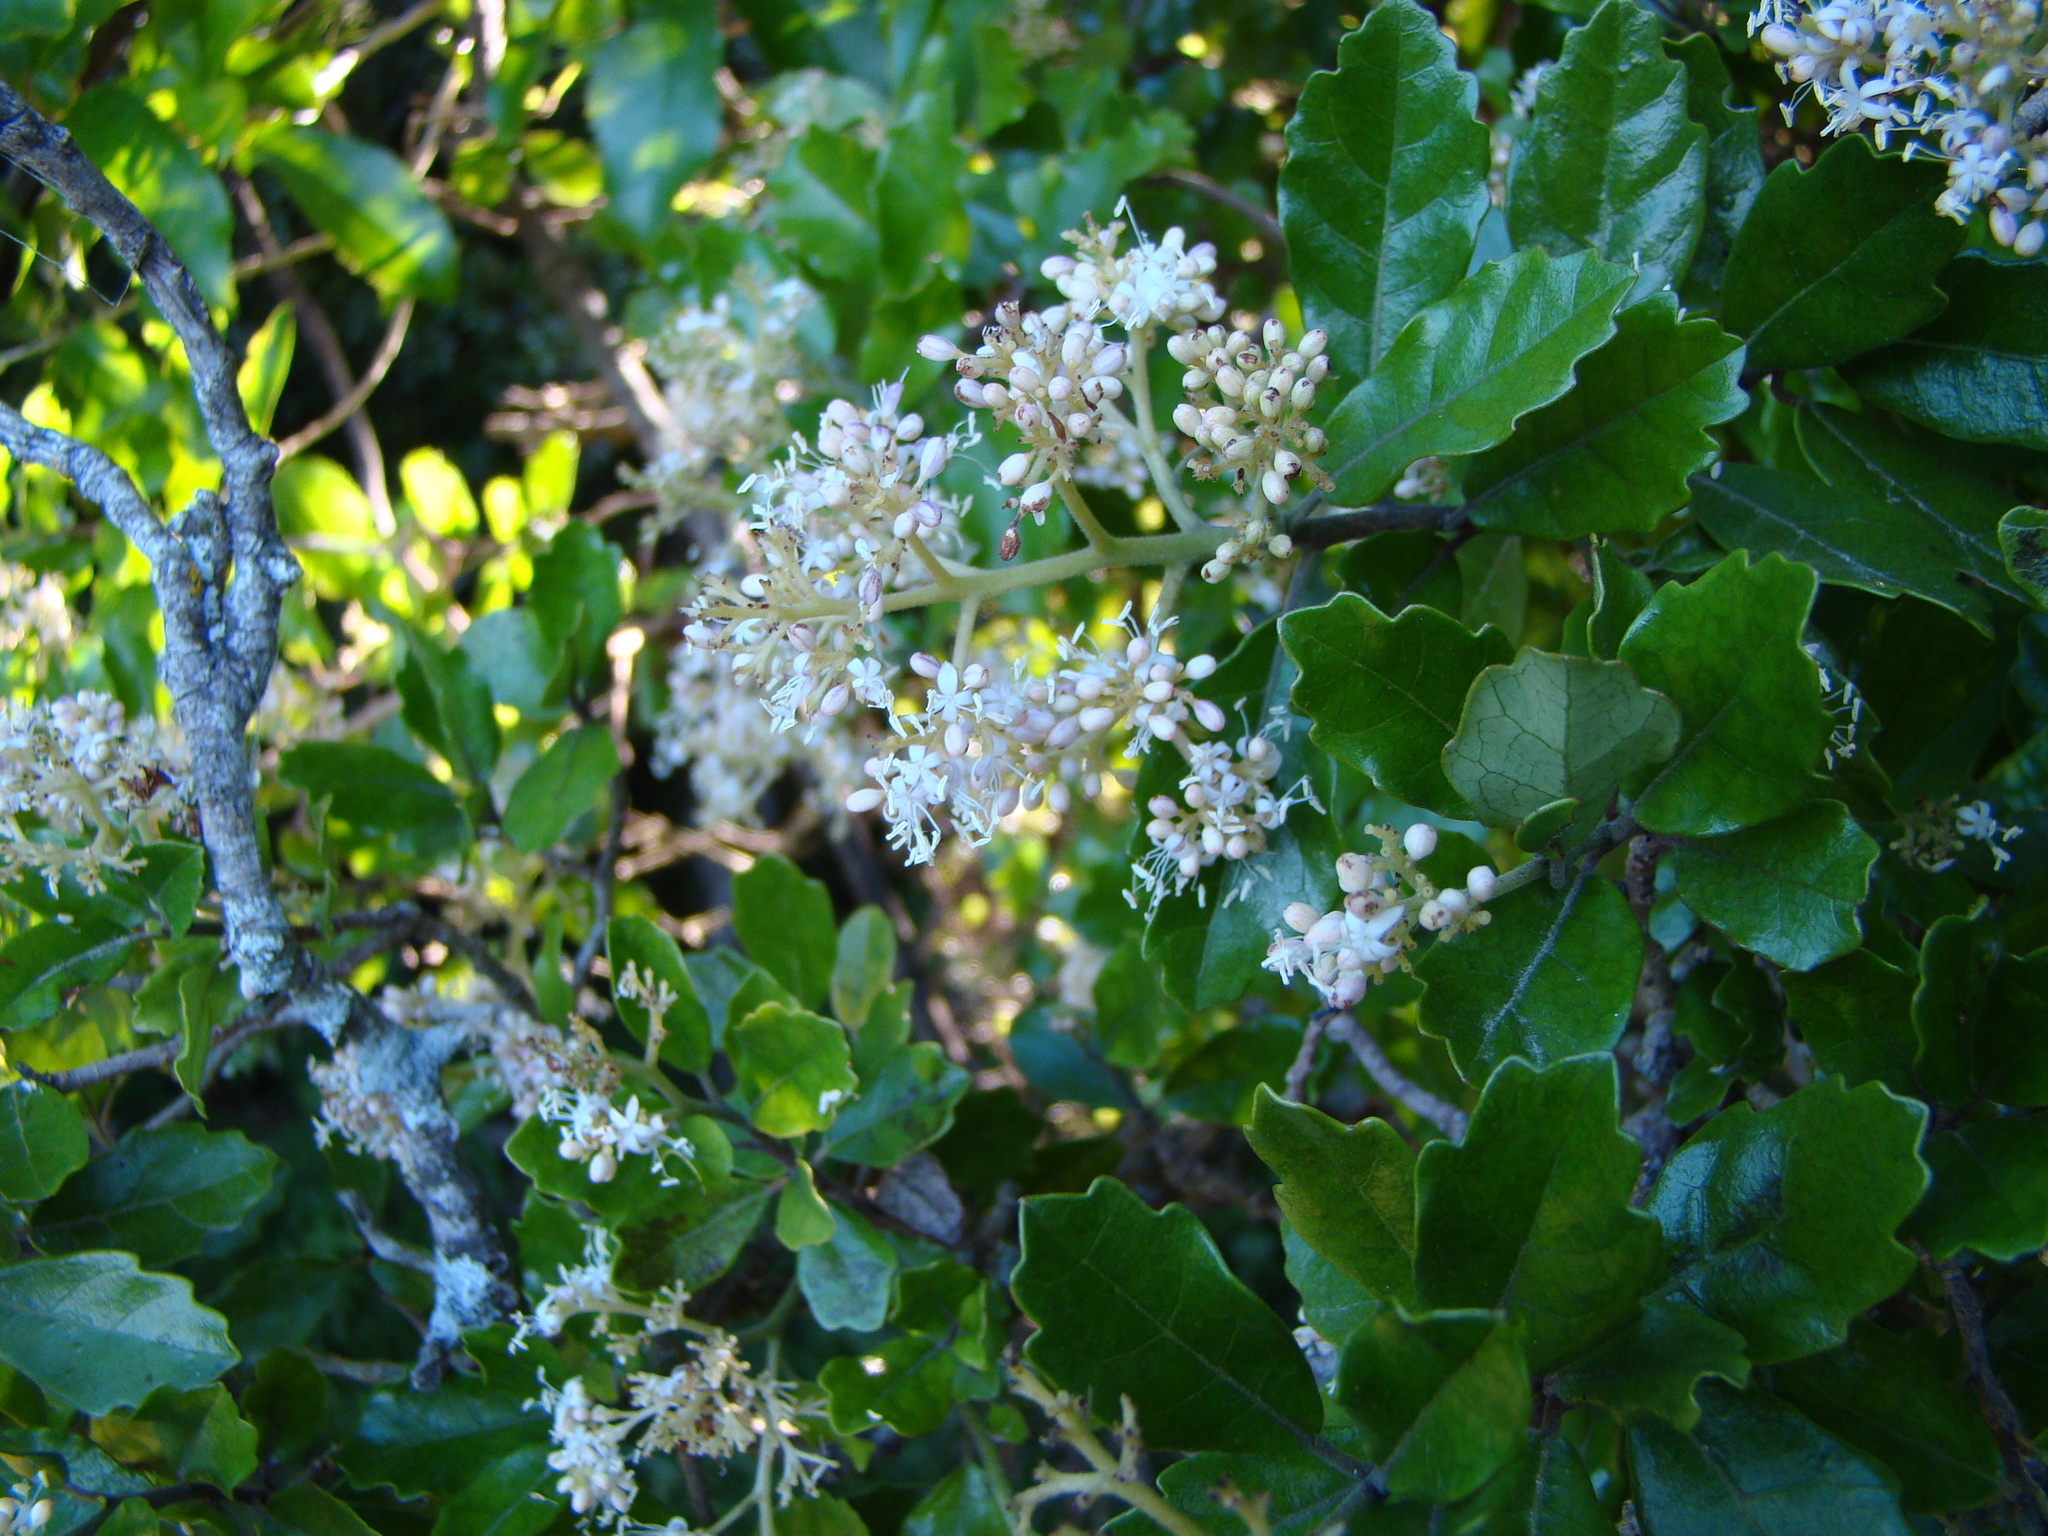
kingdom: Plantae
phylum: Tracheophyta
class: Magnoliopsida
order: Apiales
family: Pennantiaceae
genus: Pennantia
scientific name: Pennantia corymbosa
